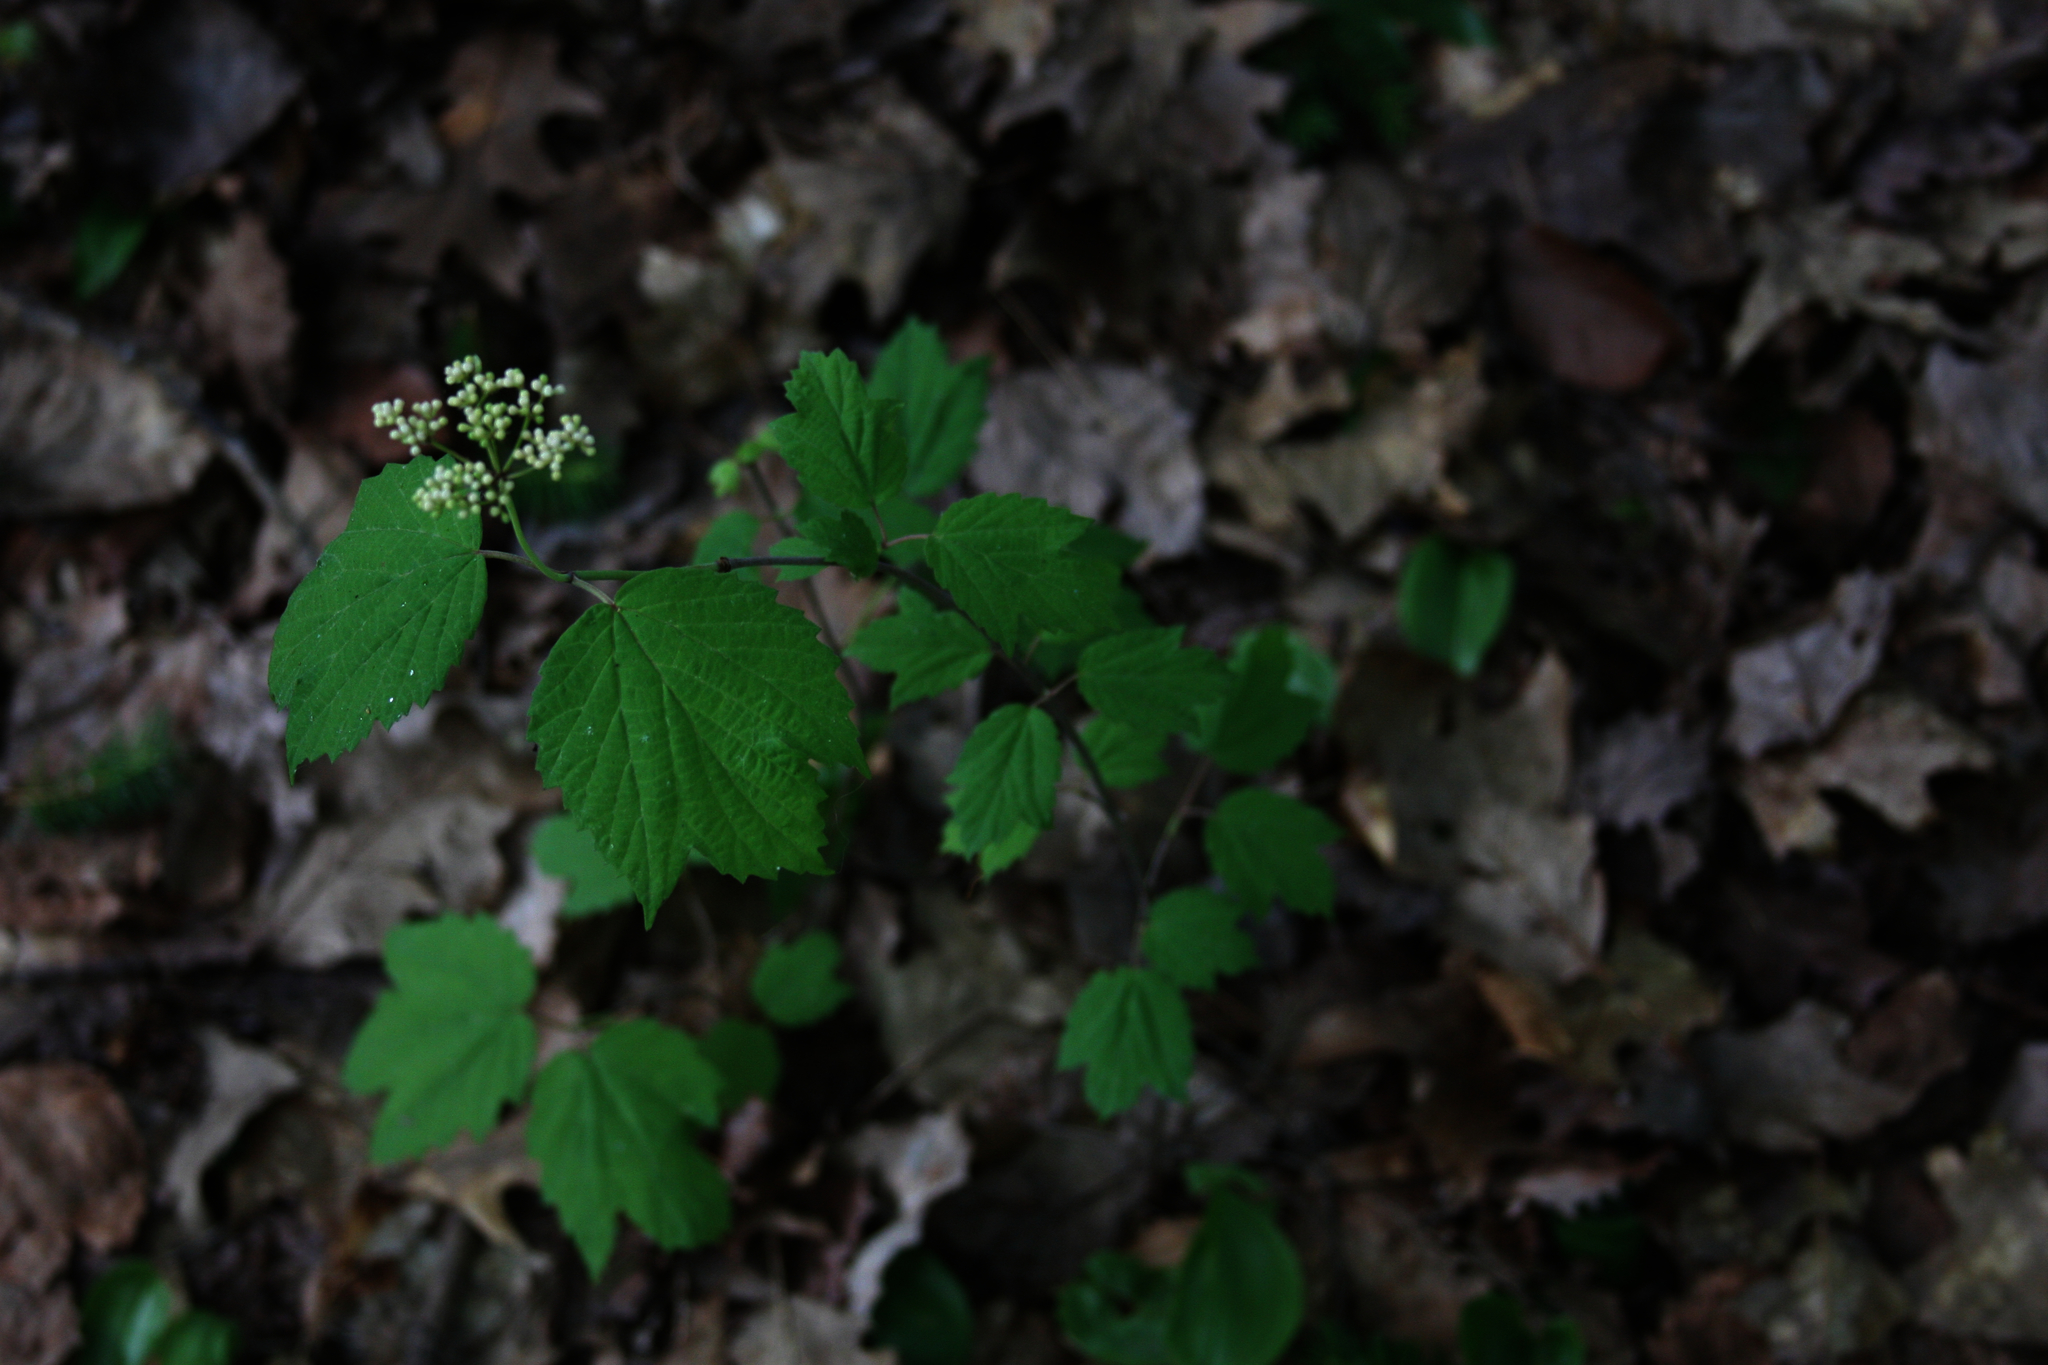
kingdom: Plantae
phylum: Tracheophyta
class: Magnoliopsida
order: Dipsacales
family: Viburnaceae
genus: Viburnum
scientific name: Viburnum acerifolium
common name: Dockmackie
